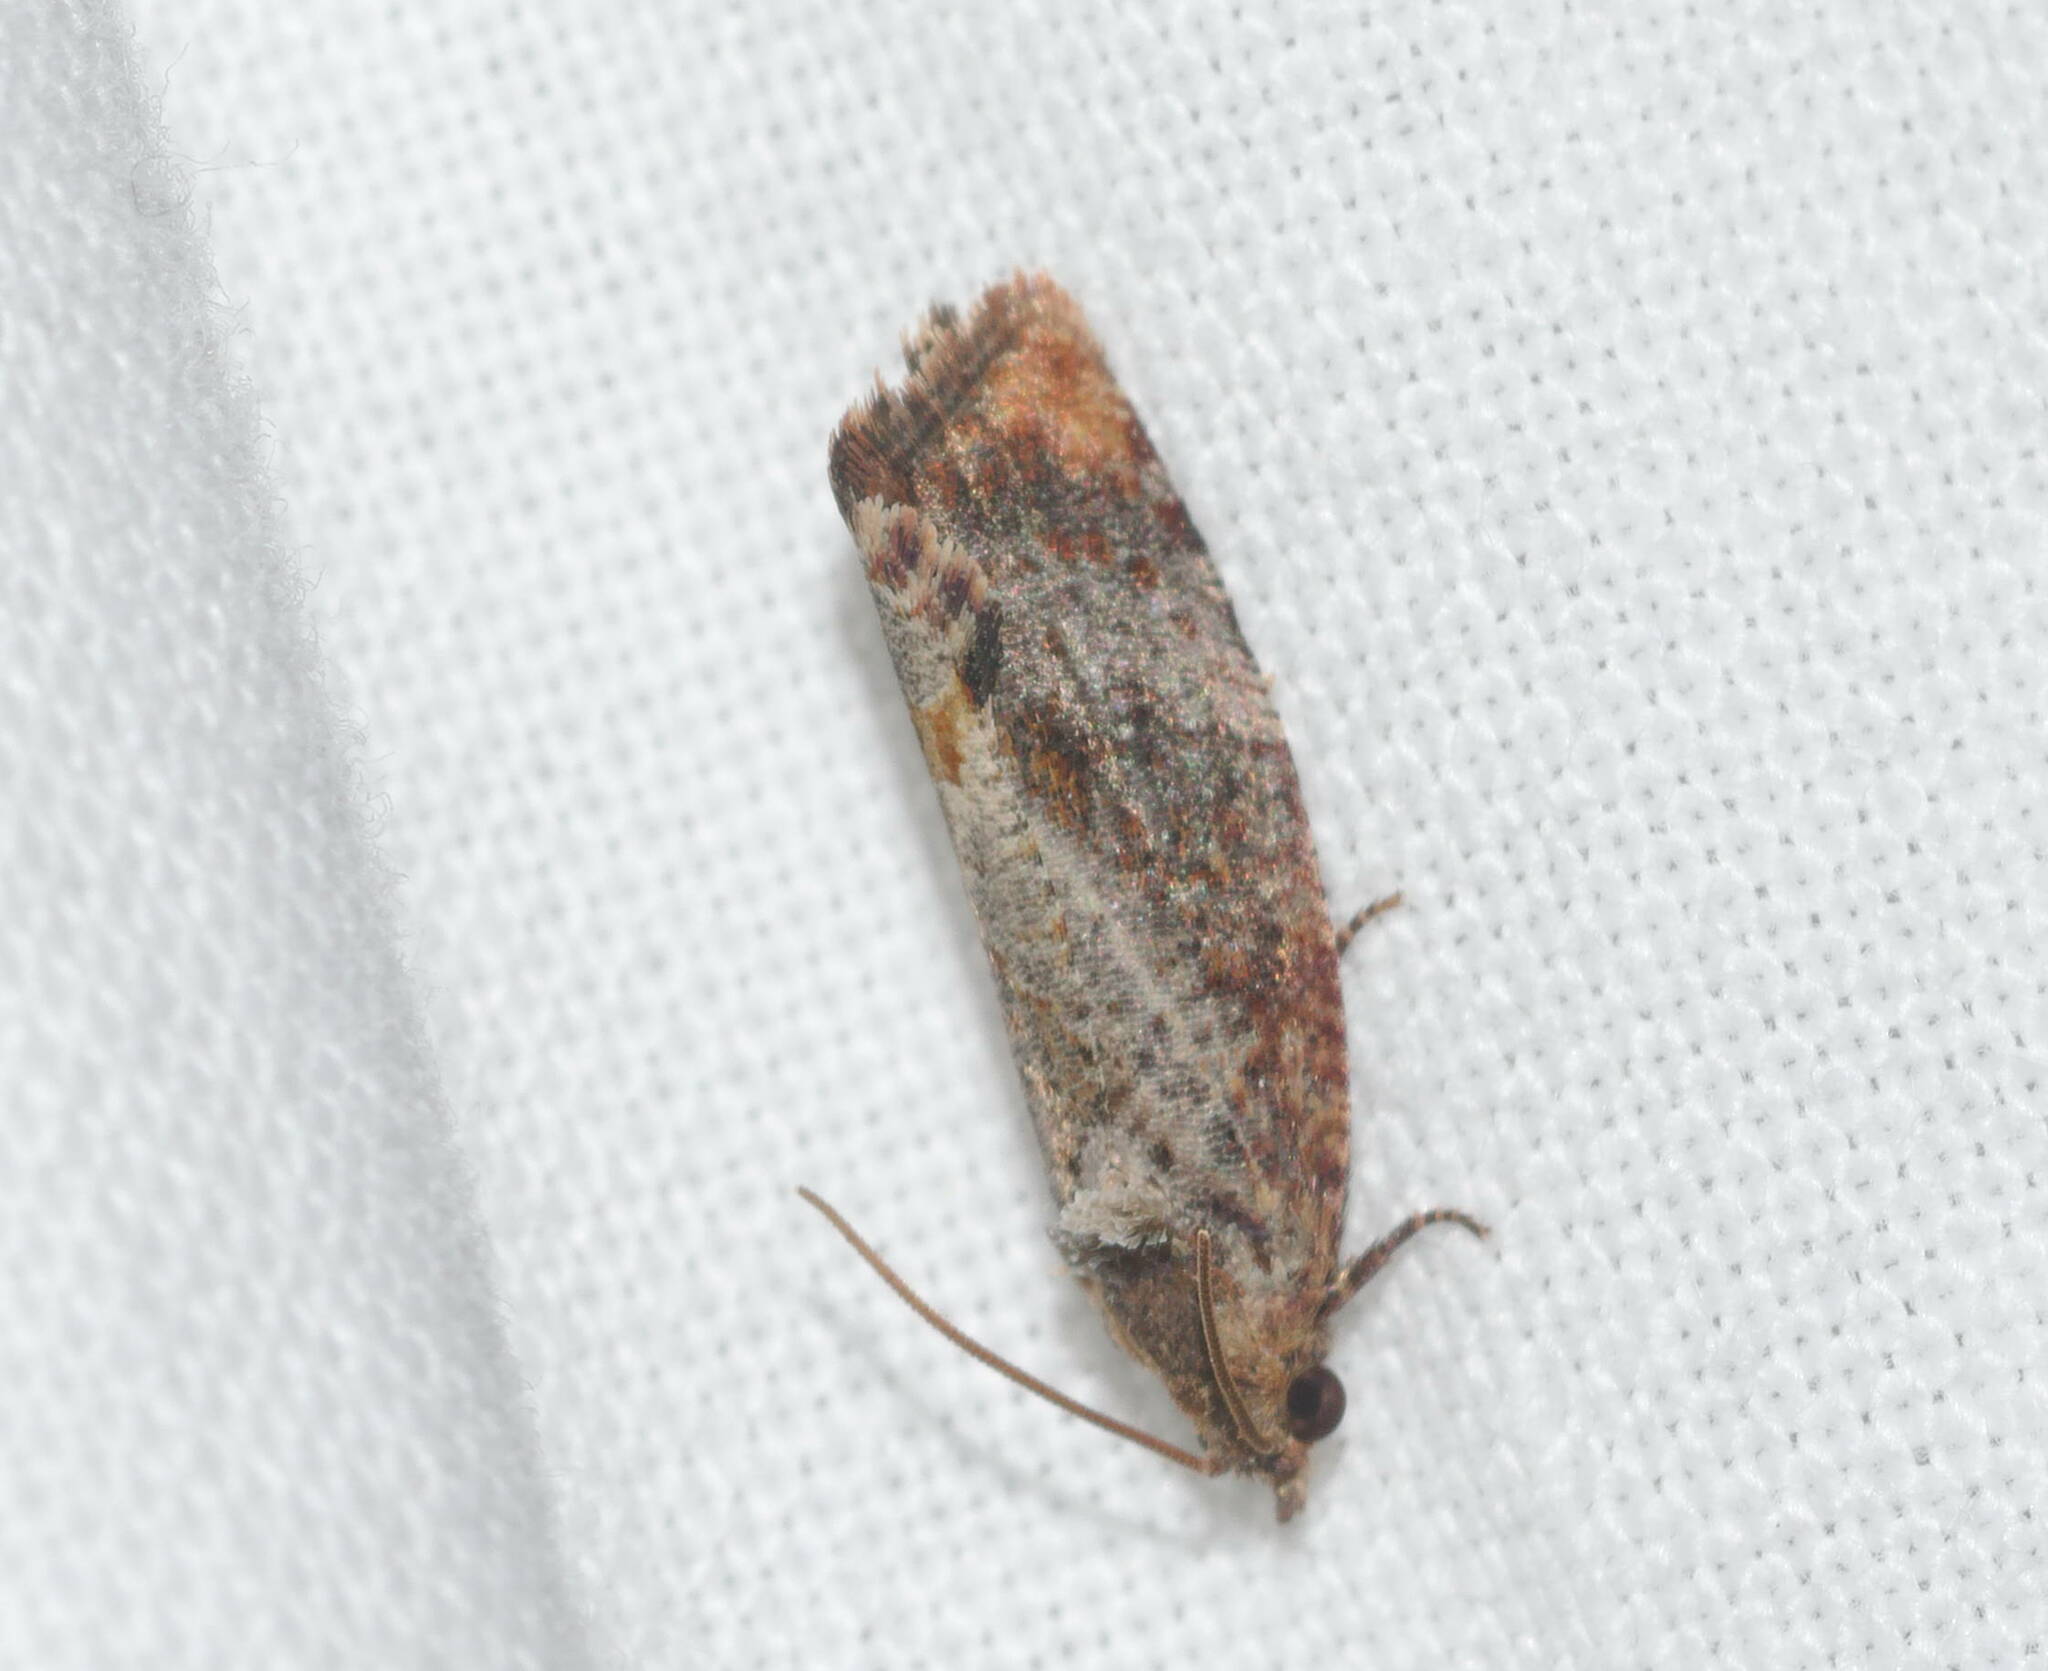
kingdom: Animalia
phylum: Arthropoda
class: Insecta
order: Lepidoptera
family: Tortricidae
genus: Cryptophlebia
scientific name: Cryptophlebia illepida
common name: Moth
